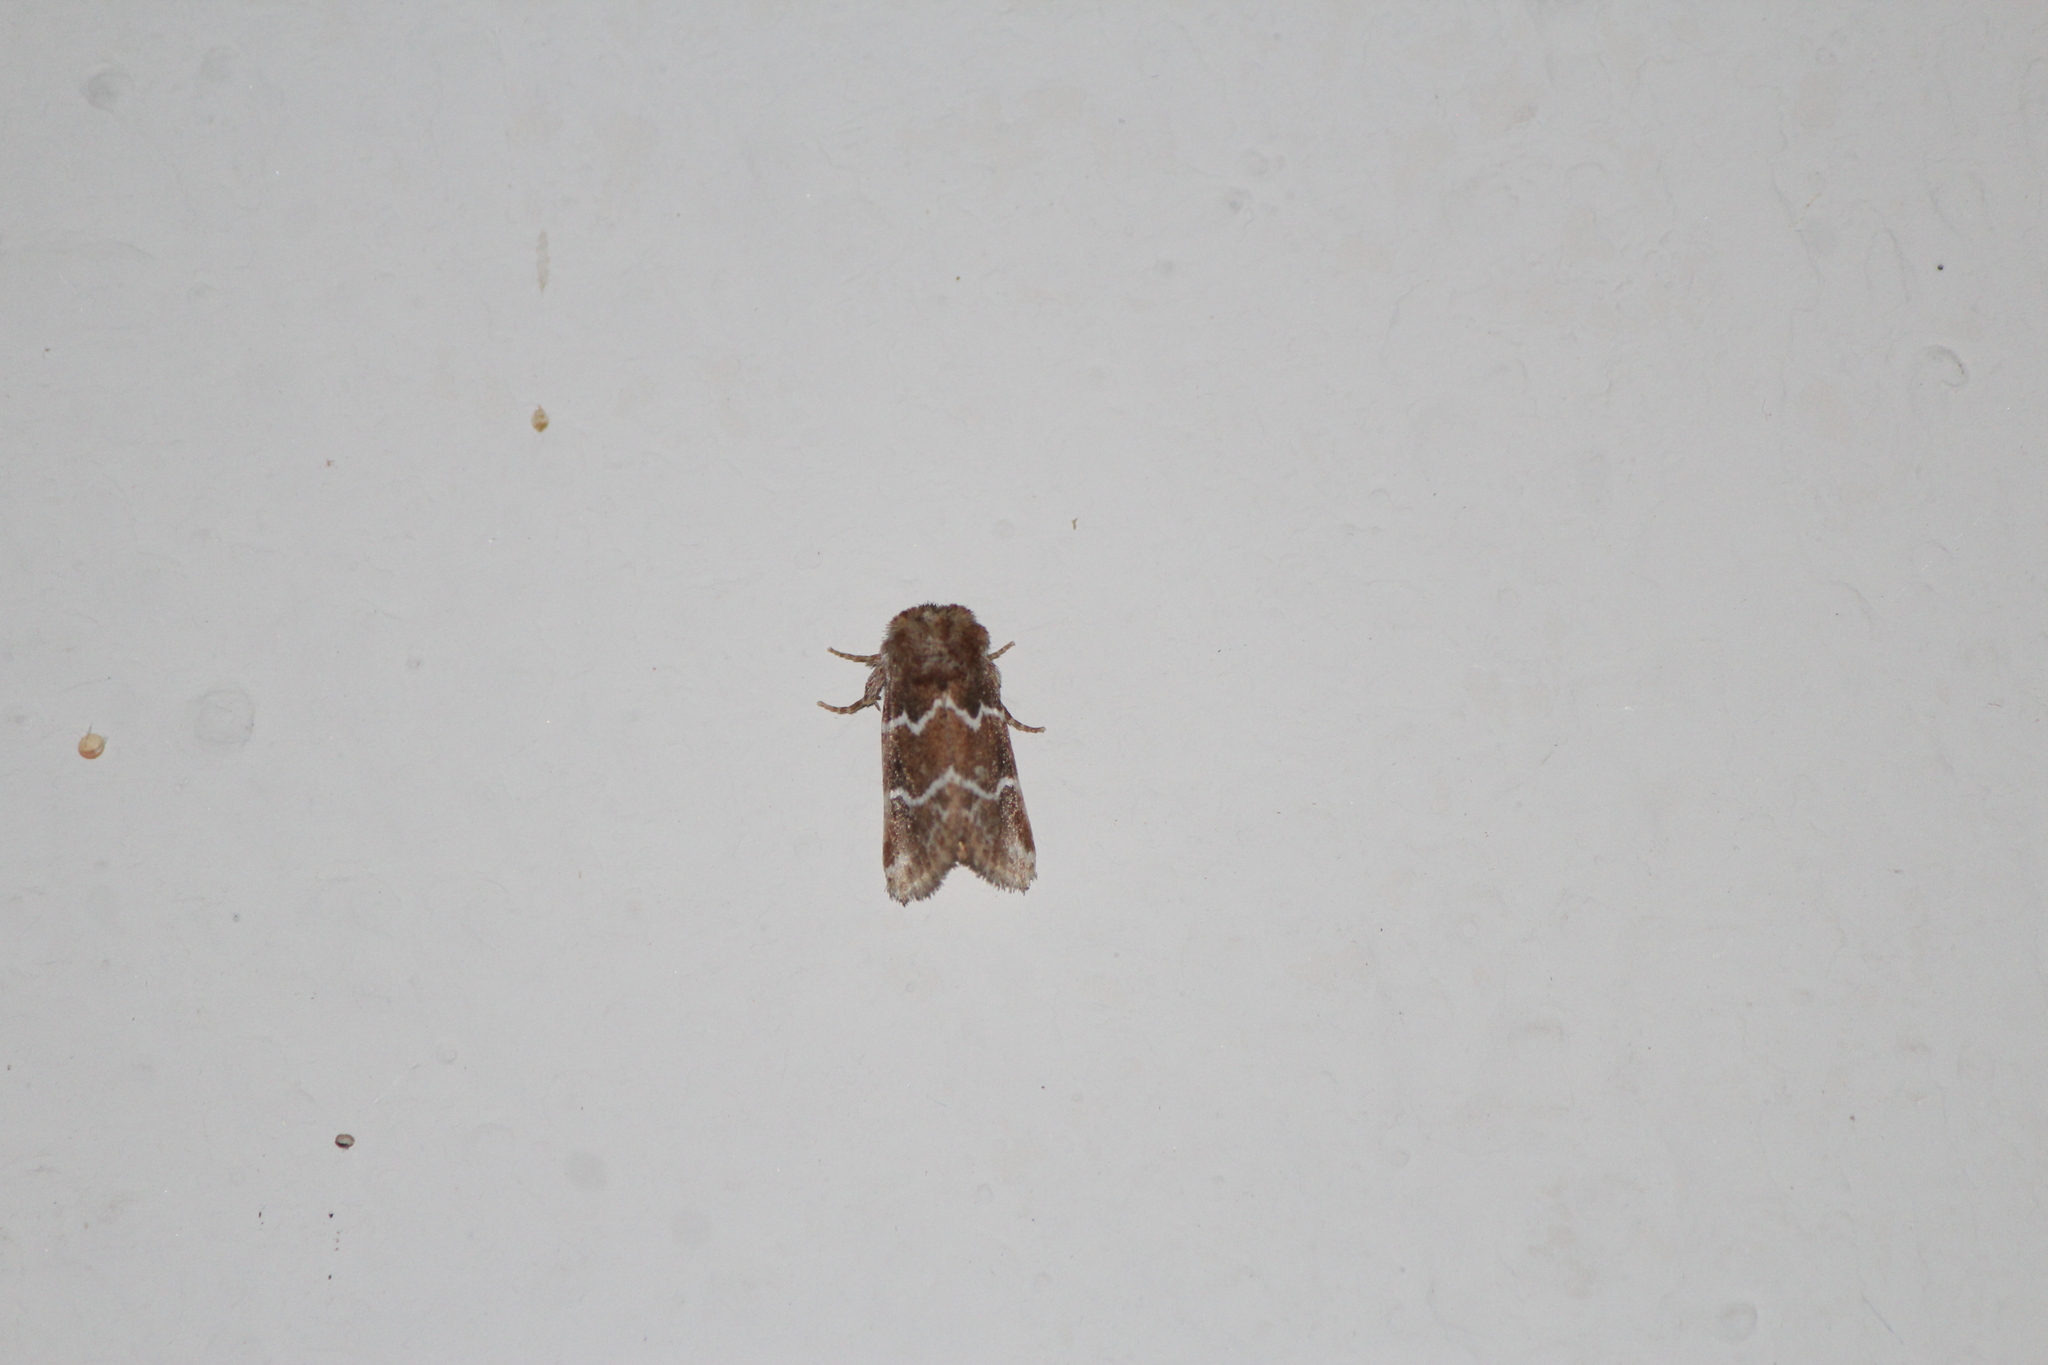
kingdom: Animalia
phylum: Arthropoda
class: Insecta
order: Lepidoptera
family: Noctuidae
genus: Nacopa
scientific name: Nacopa bistrigata
